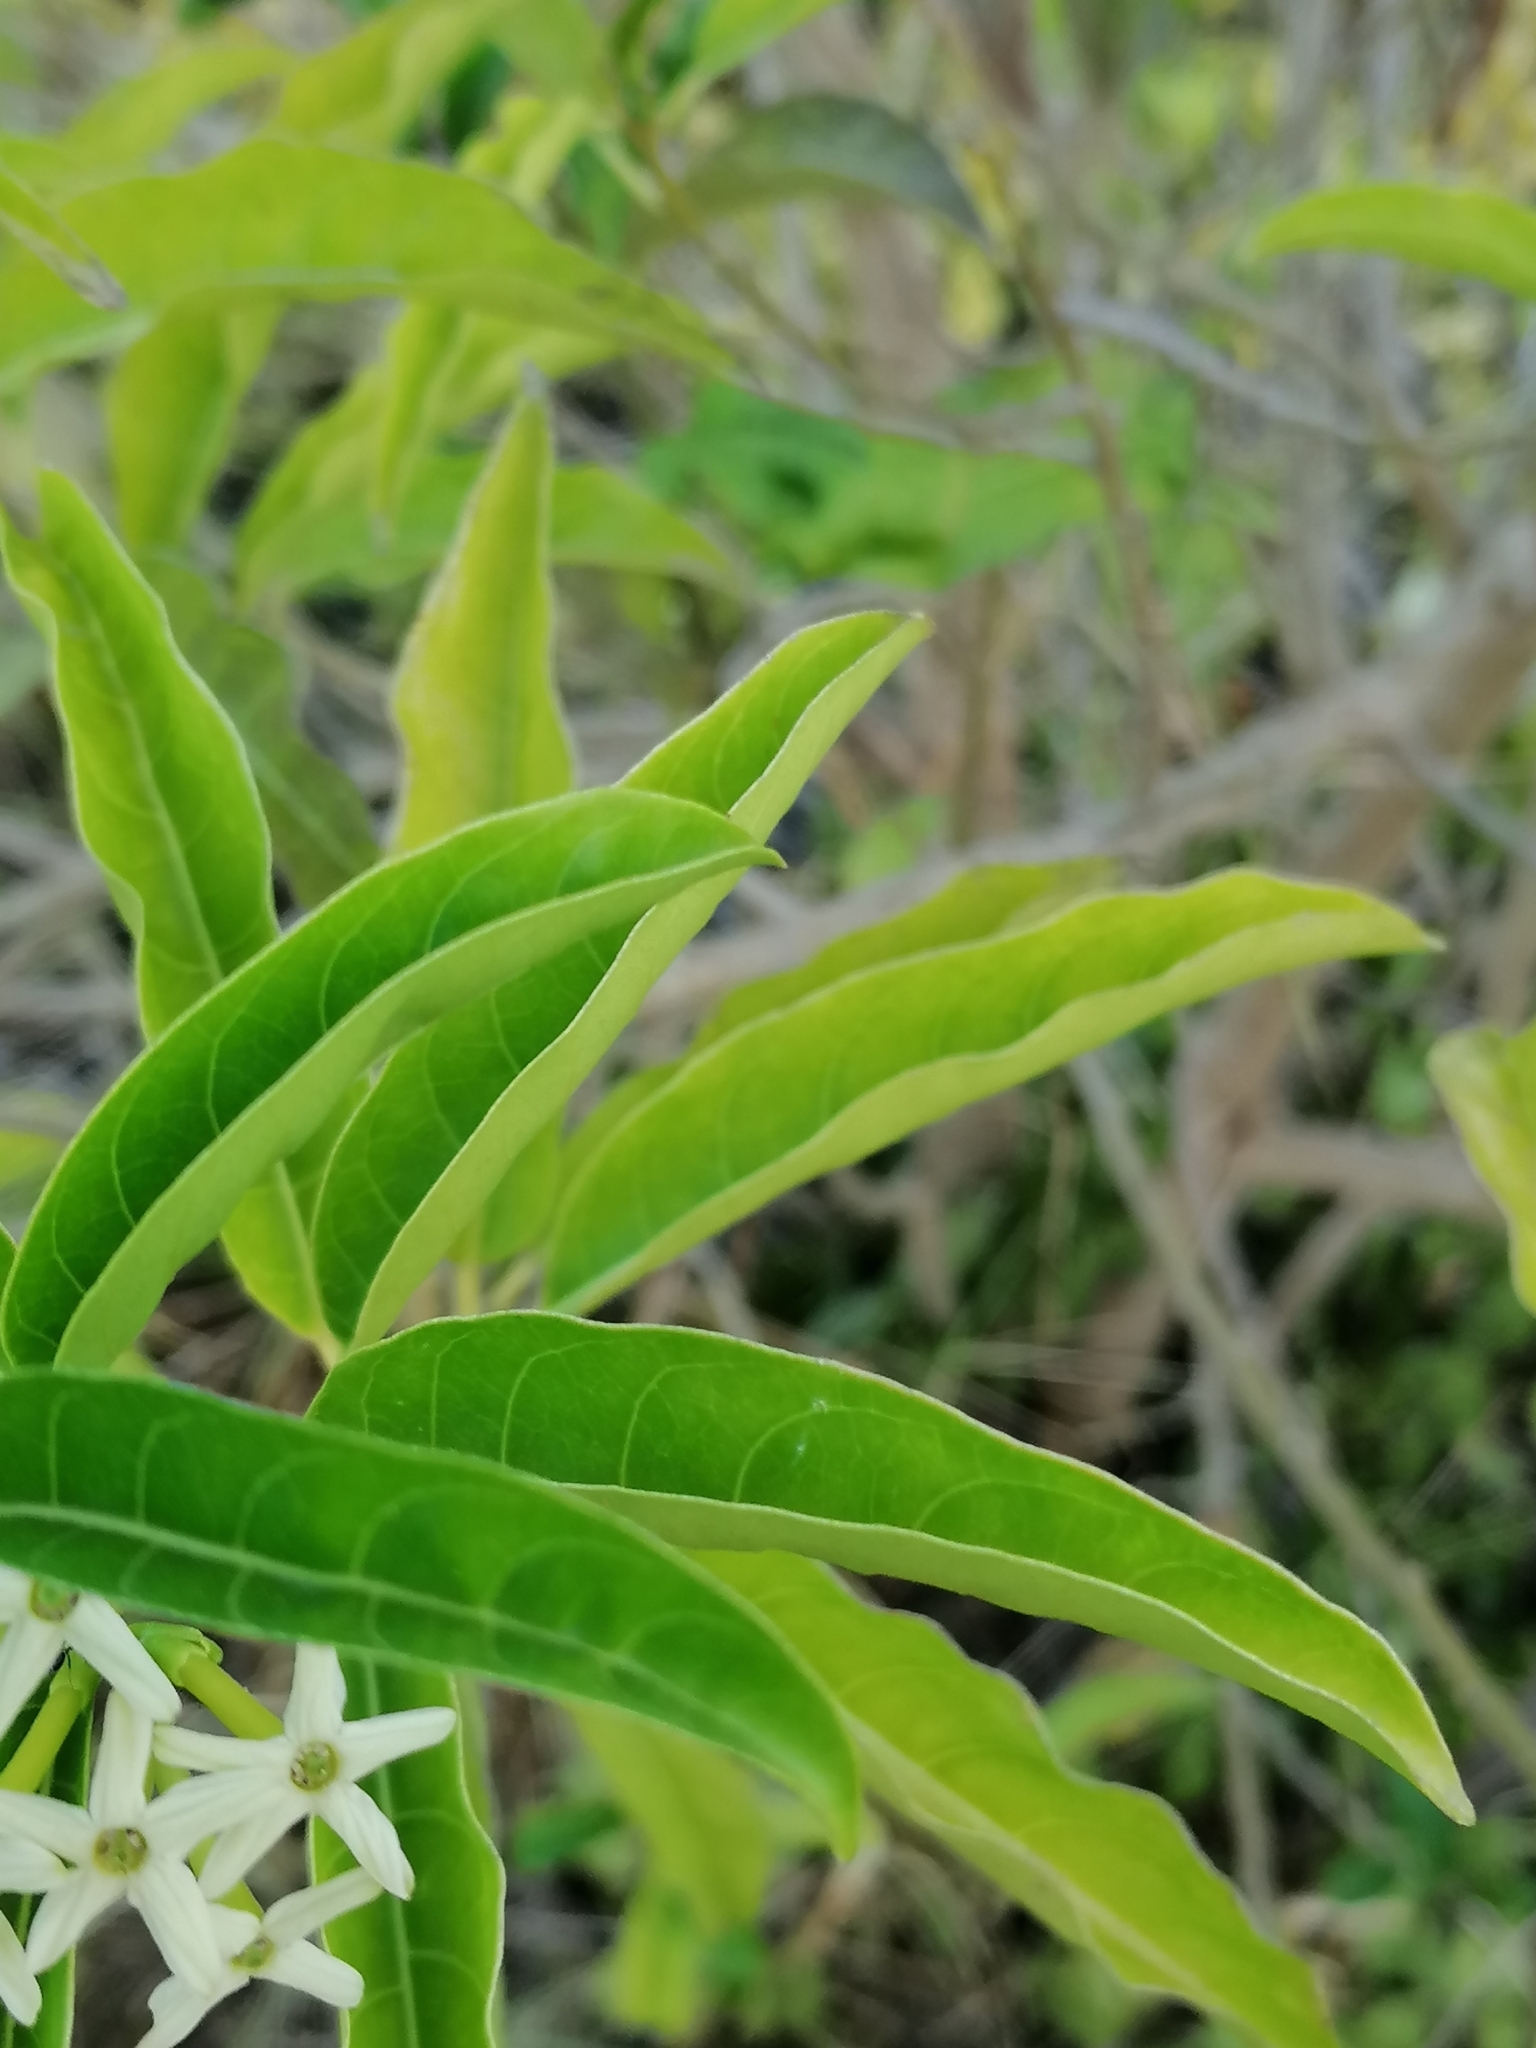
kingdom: Plantae
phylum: Tracheophyta
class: Magnoliopsida
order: Solanales
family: Solanaceae
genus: Cestrum
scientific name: Cestrum laevigatum
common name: Inkberry
